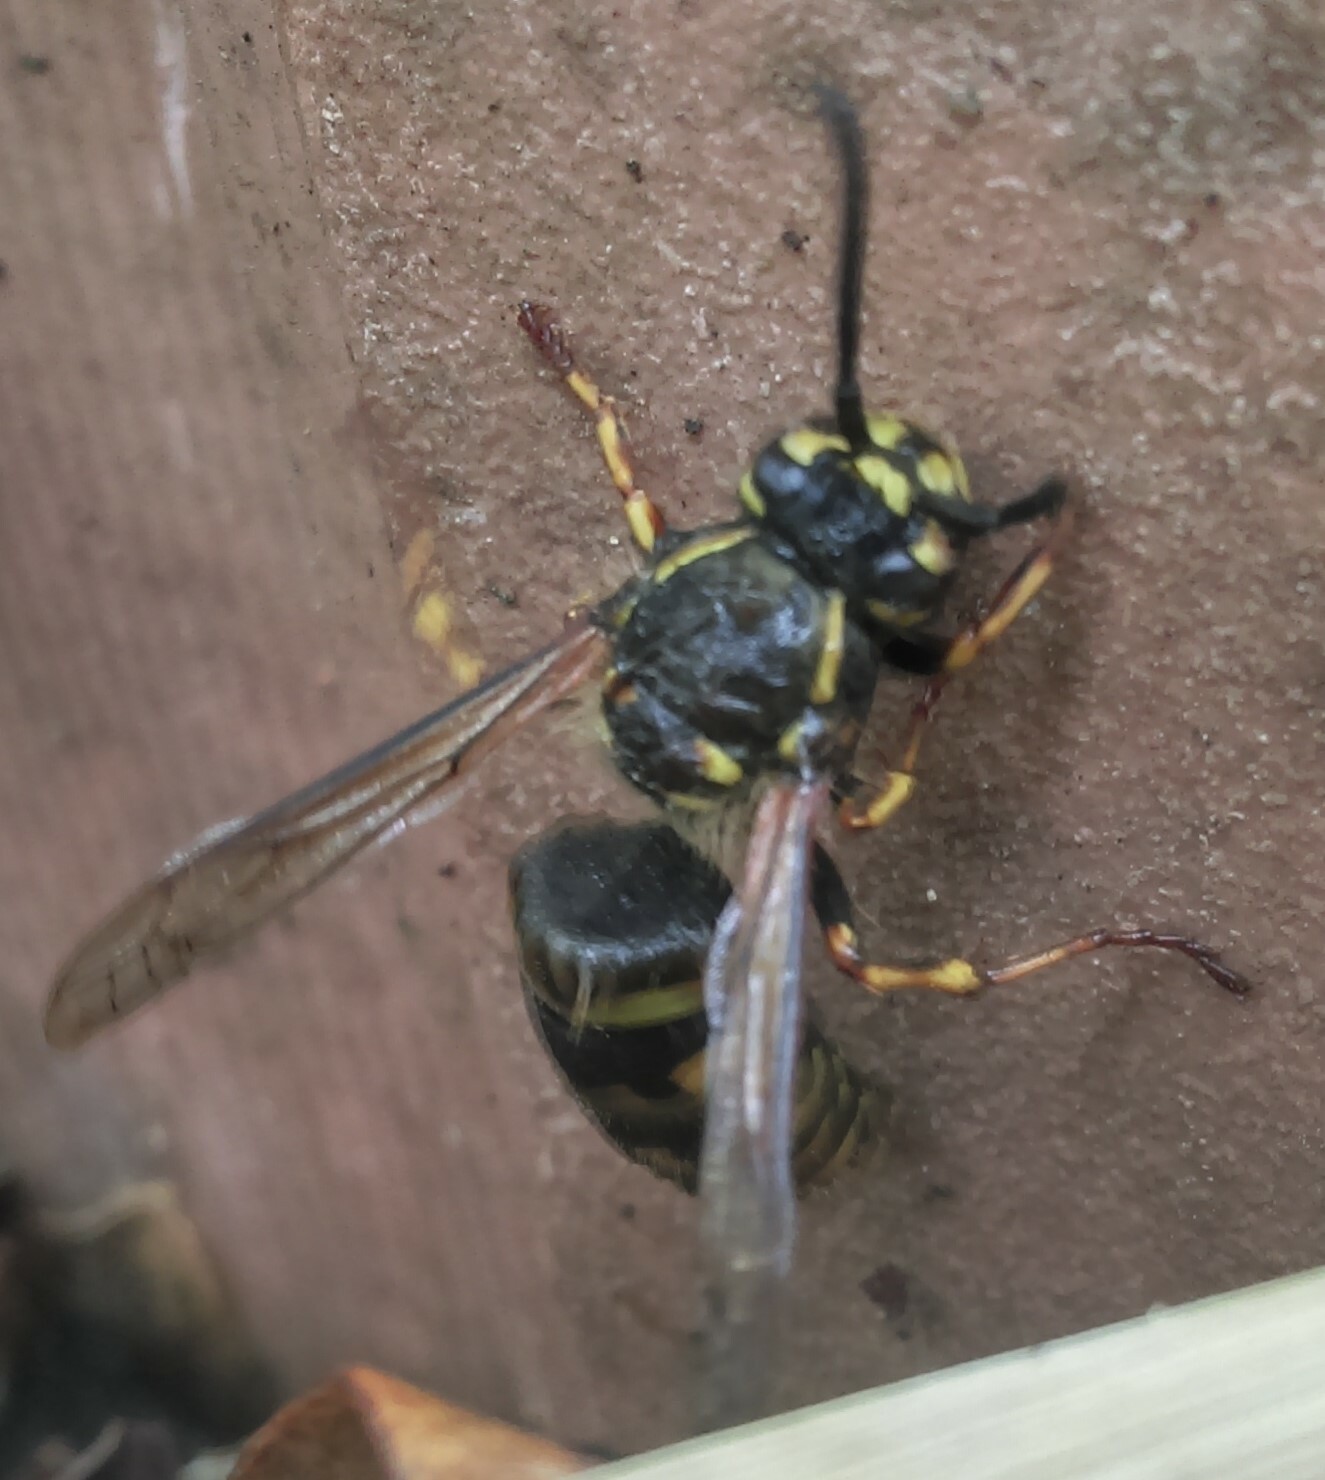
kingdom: Animalia
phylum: Arthropoda
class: Insecta
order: Hymenoptera
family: Vespidae
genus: Vespula
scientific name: Vespula vulgaris
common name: Common wasp
